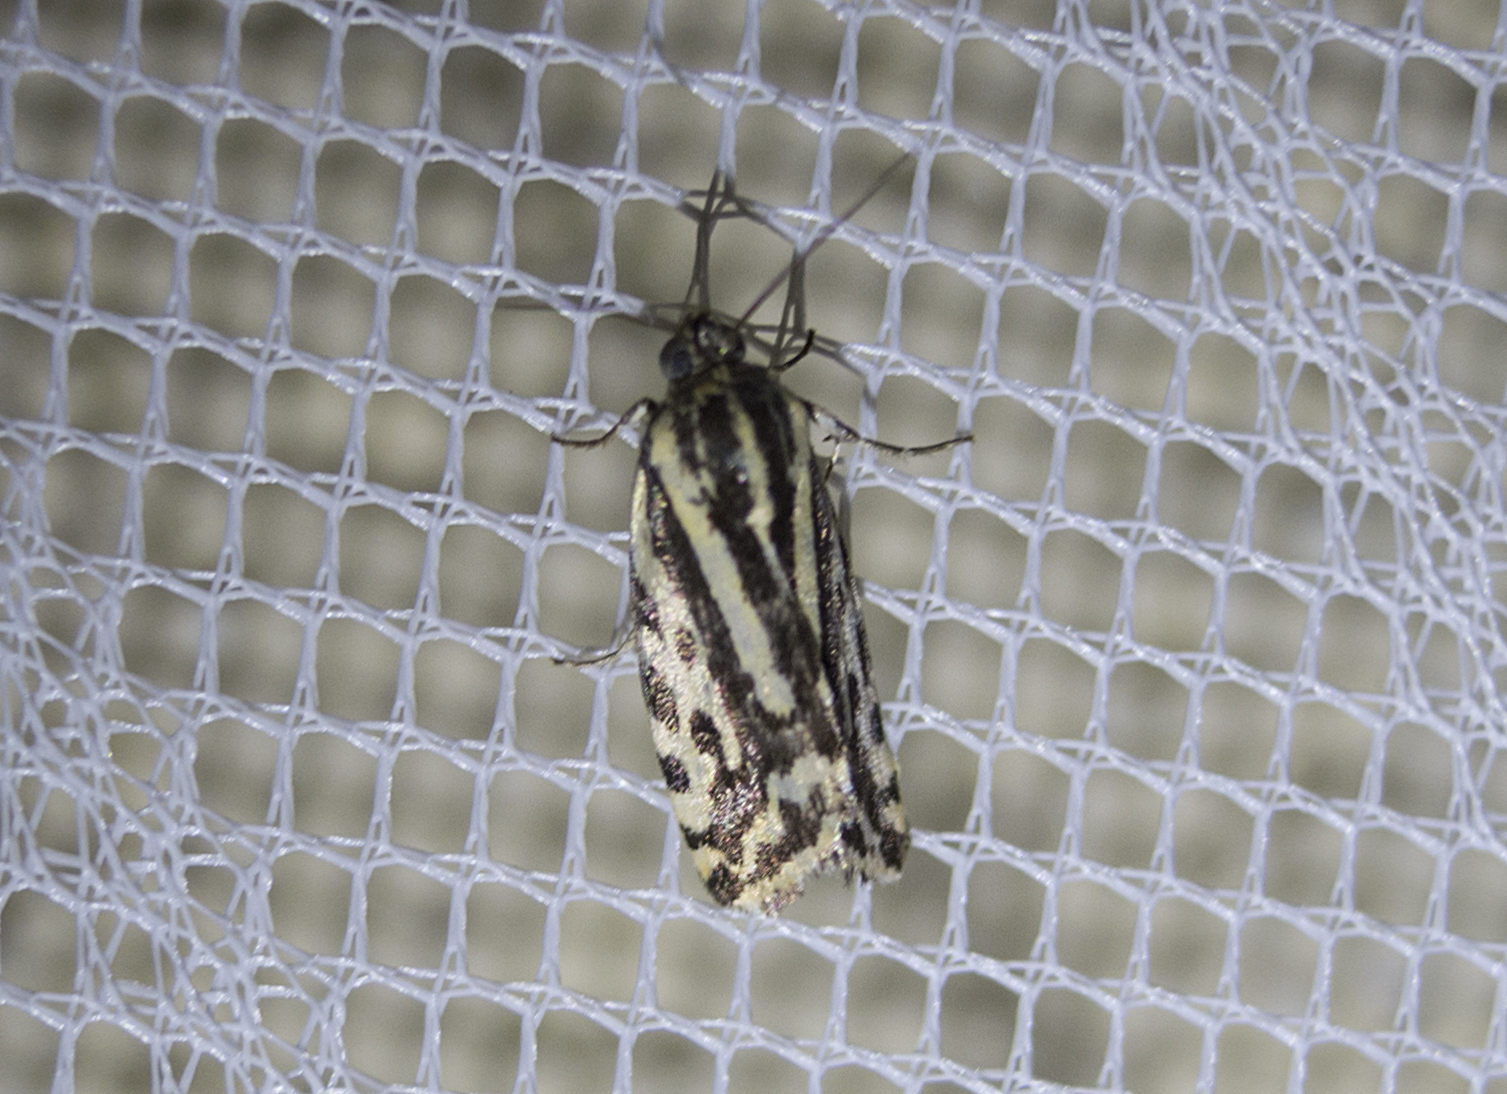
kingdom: Animalia
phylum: Arthropoda
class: Insecta
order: Lepidoptera
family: Noctuidae
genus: Acontia
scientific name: Acontia trabealis
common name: Spotted sulphur
